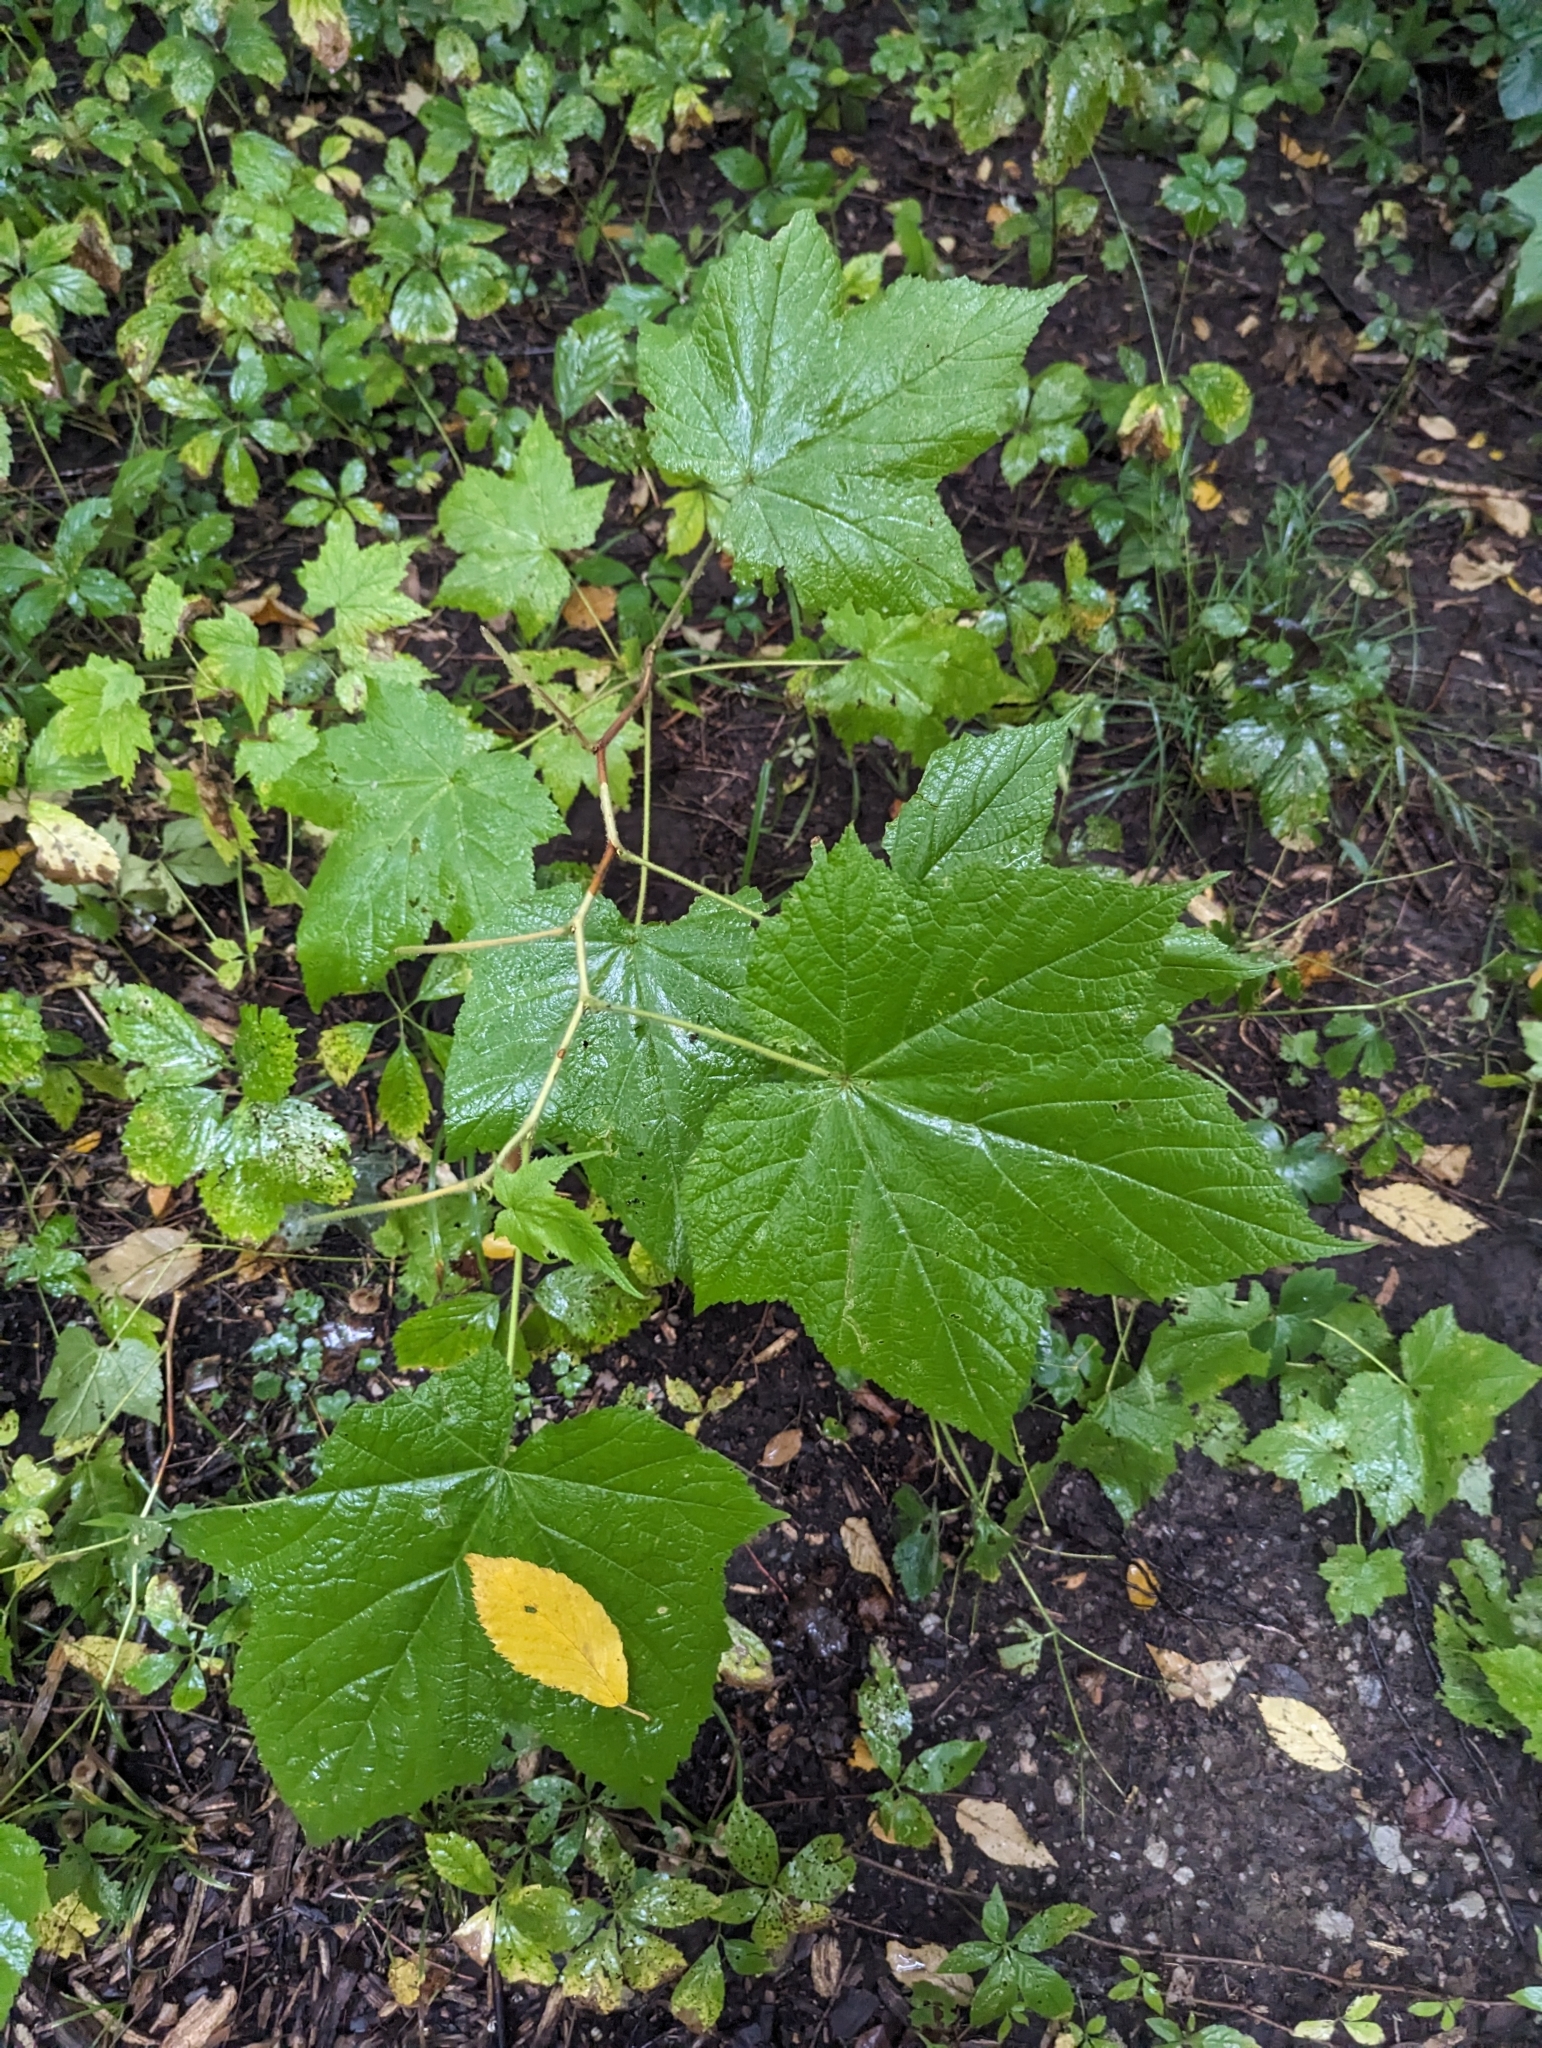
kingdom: Plantae
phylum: Tracheophyta
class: Magnoliopsida
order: Rosales
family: Rosaceae
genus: Rubus
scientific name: Rubus odoratus
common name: Purple-flowered raspberry
